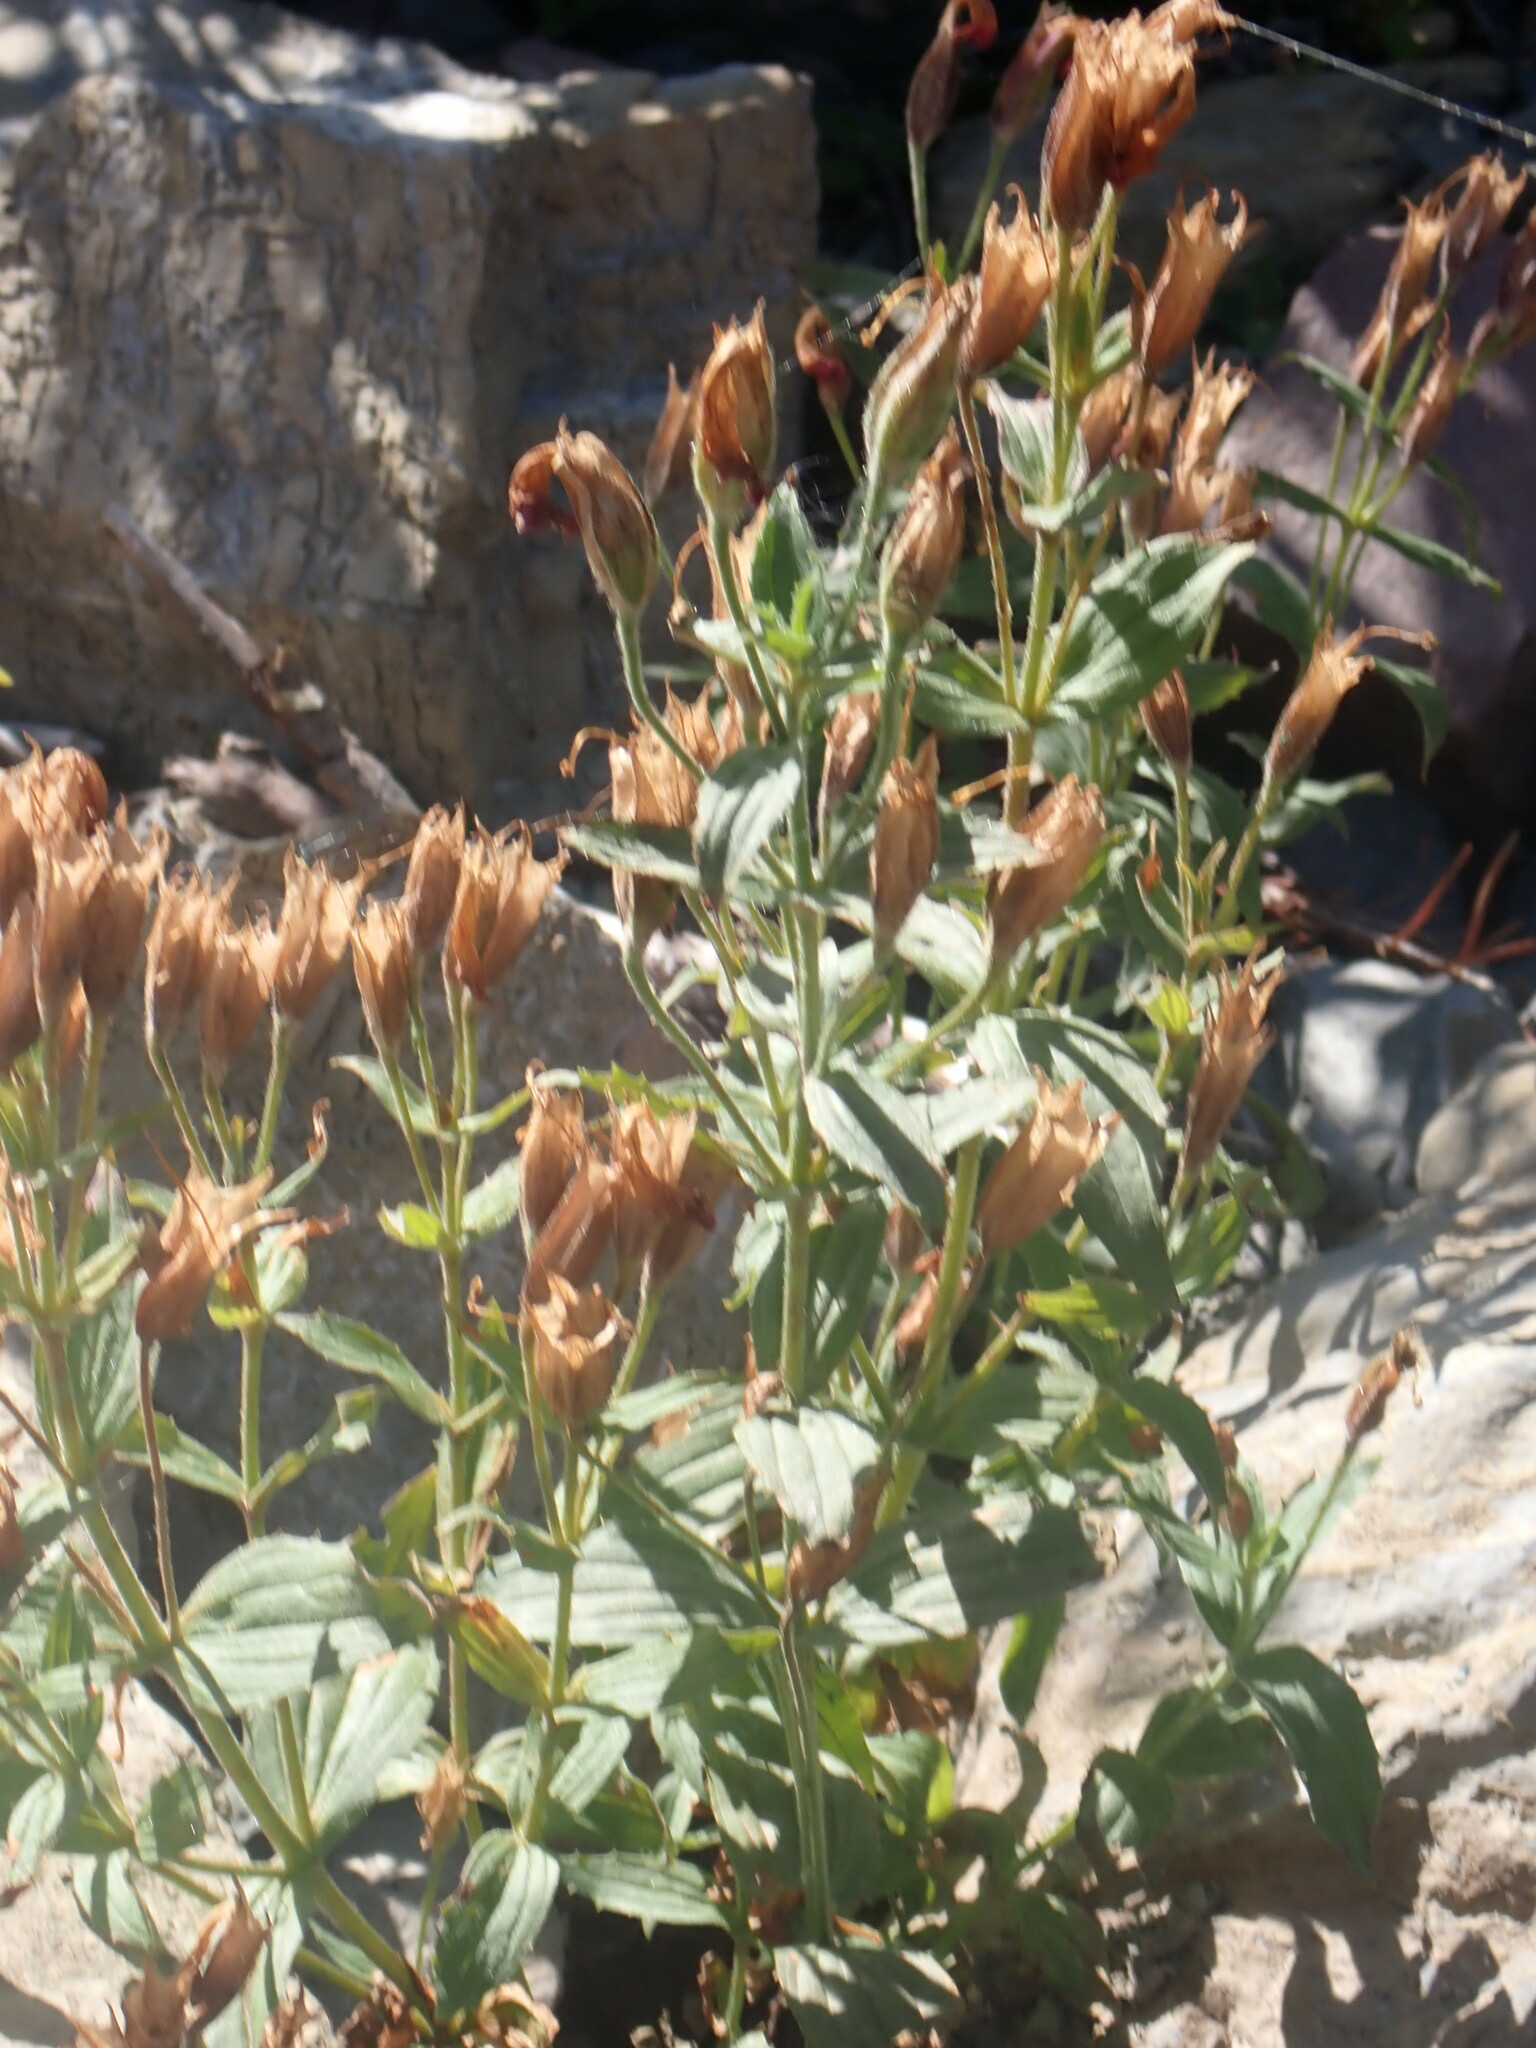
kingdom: Plantae
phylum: Tracheophyta
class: Magnoliopsida
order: Lamiales
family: Phrymaceae
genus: Erythranthe
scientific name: Erythranthe lewisii
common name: Lewis's monkey-flower
